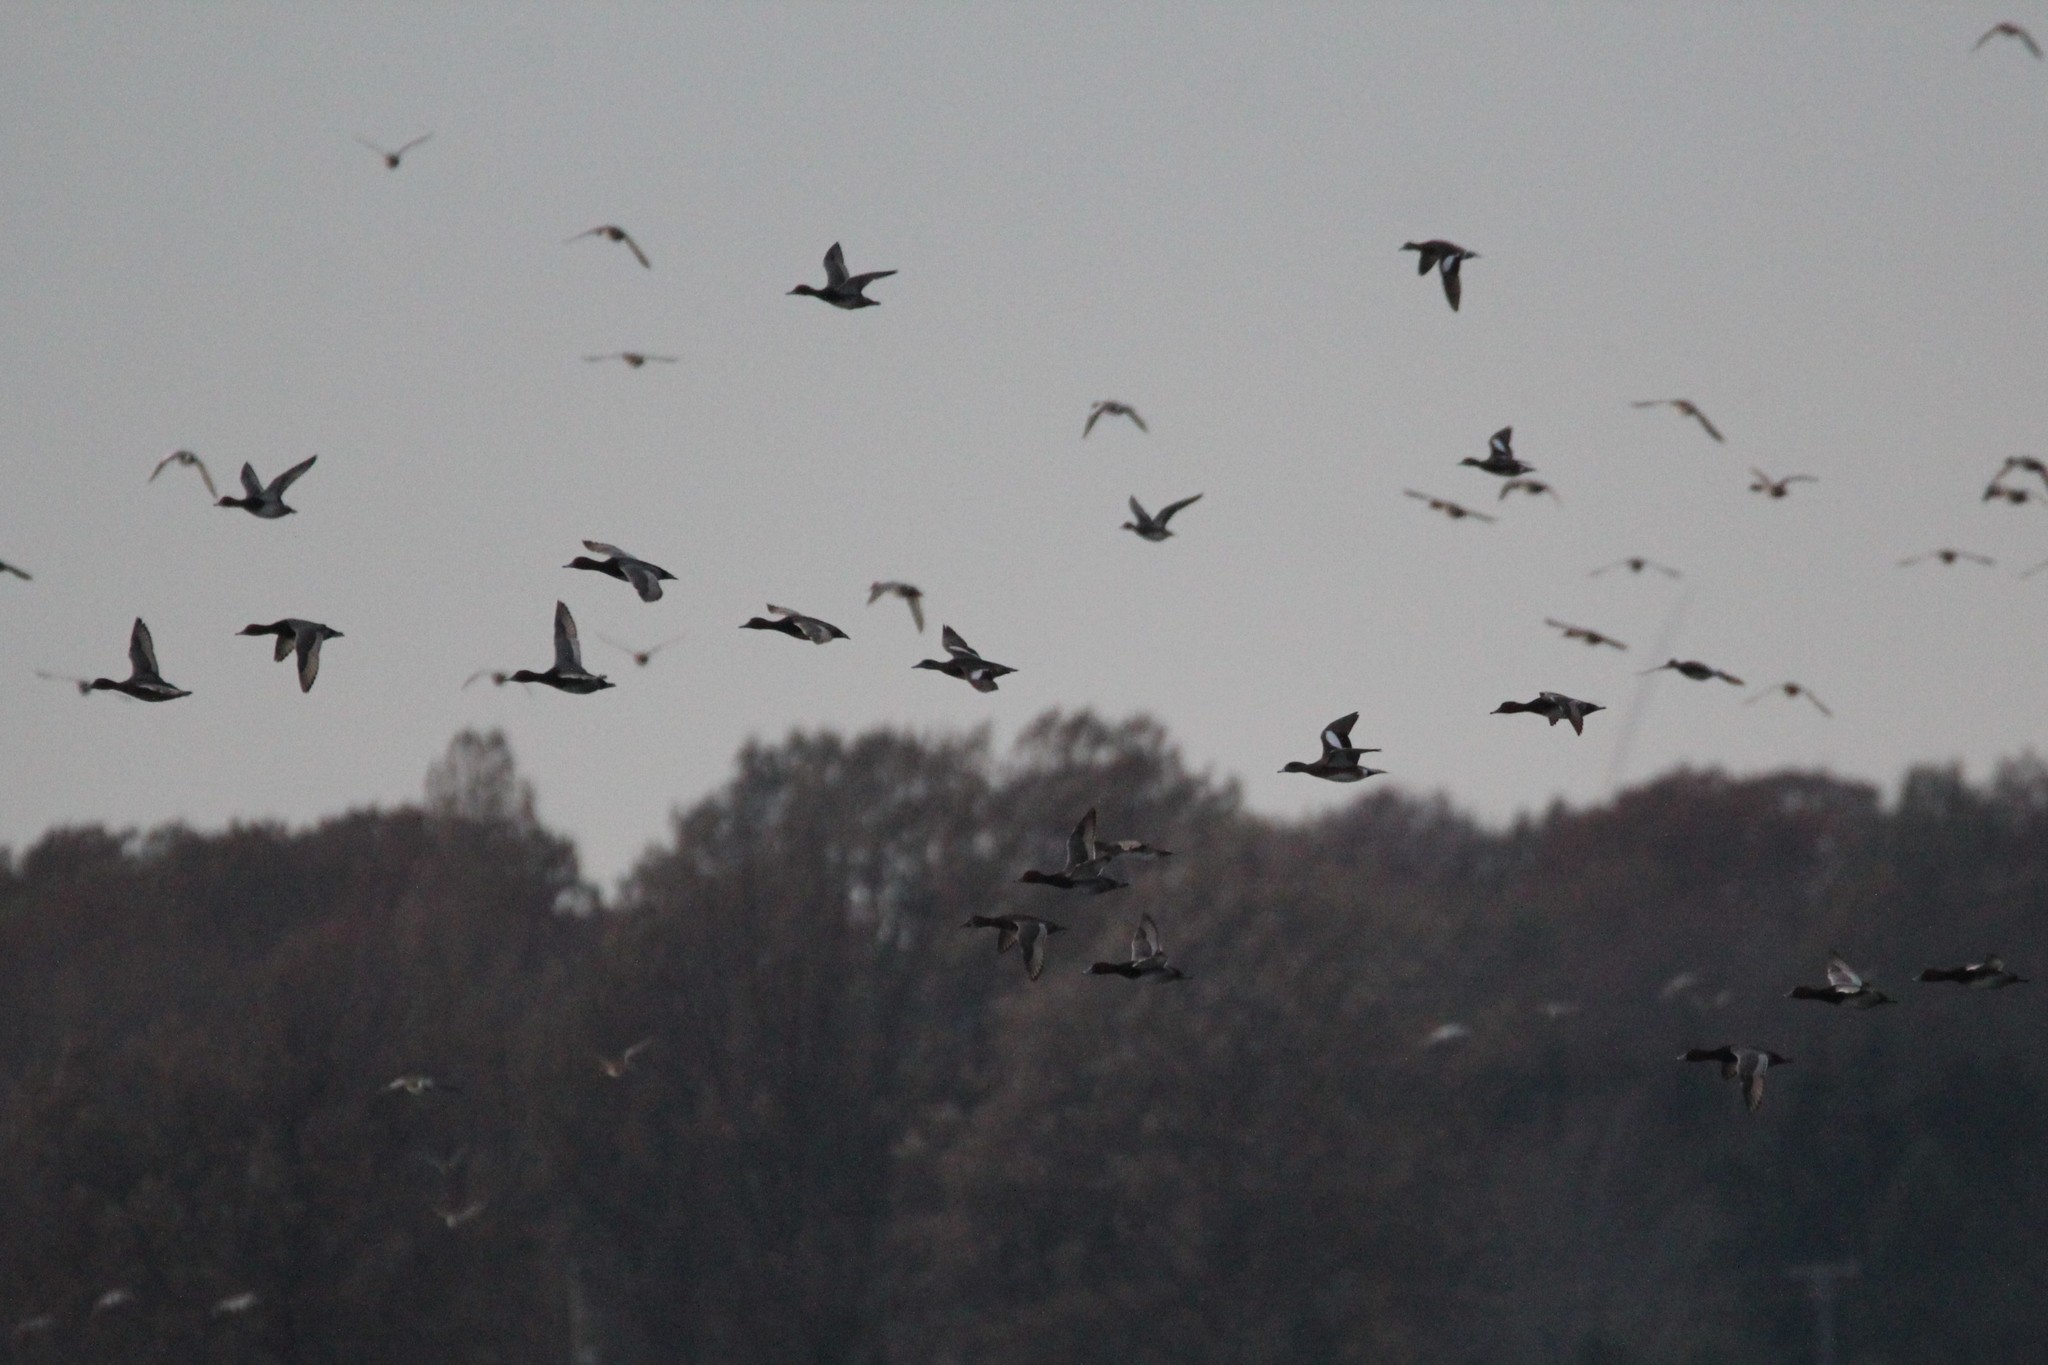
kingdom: Animalia
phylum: Chordata
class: Aves
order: Anseriformes
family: Anatidae
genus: Aythya
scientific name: Aythya americana
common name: Redhead
